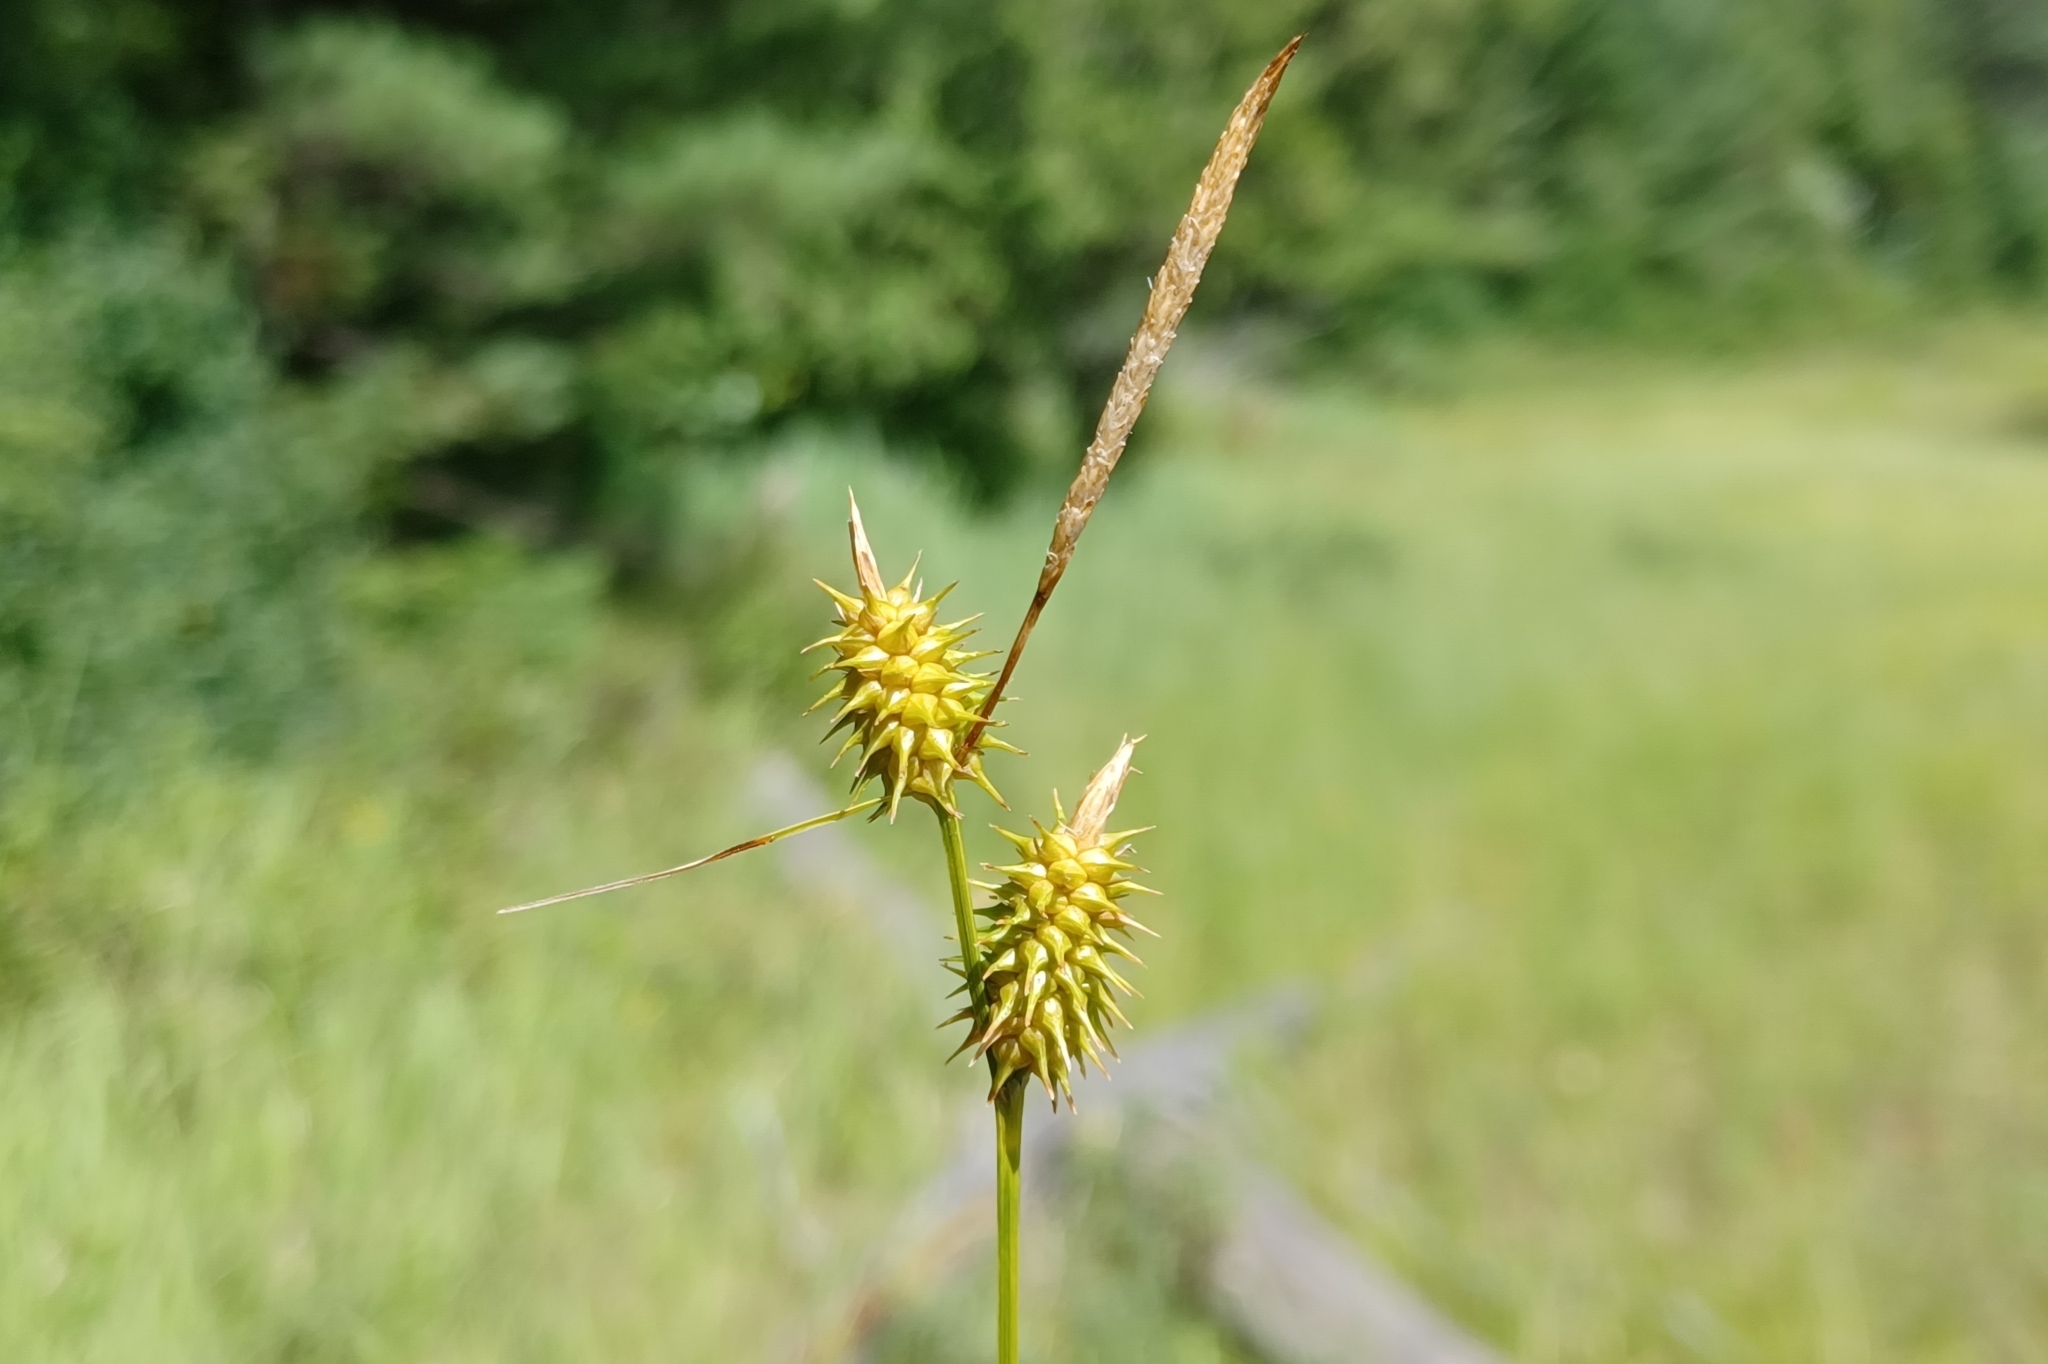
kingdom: Plantae
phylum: Tracheophyta
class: Liliopsida
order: Poales
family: Cyperaceae
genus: Carex
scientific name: Carex cryptolepis
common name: Northeastern sedge
